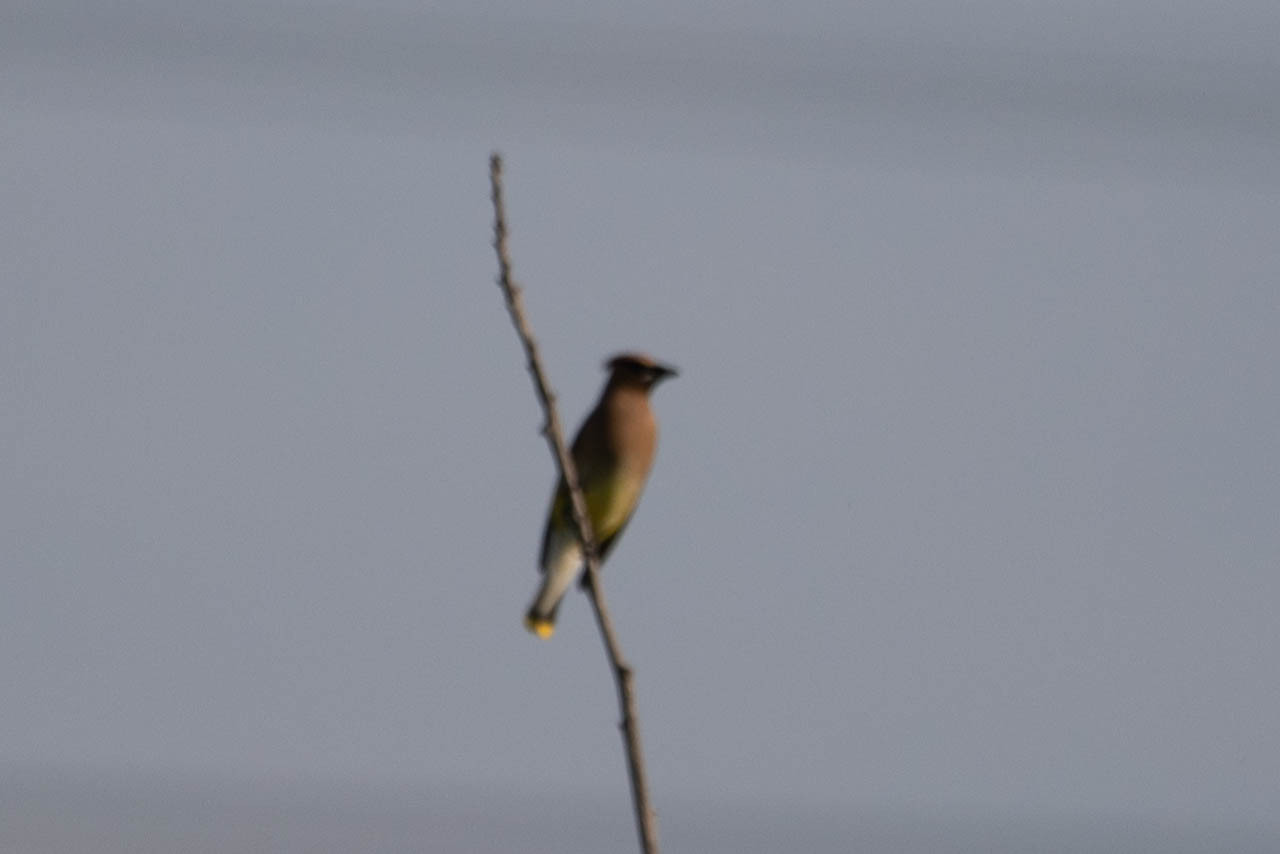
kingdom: Animalia
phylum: Chordata
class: Aves
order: Passeriformes
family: Bombycillidae
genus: Bombycilla
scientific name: Bombycilla cedrorum
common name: Cedar waxwing
